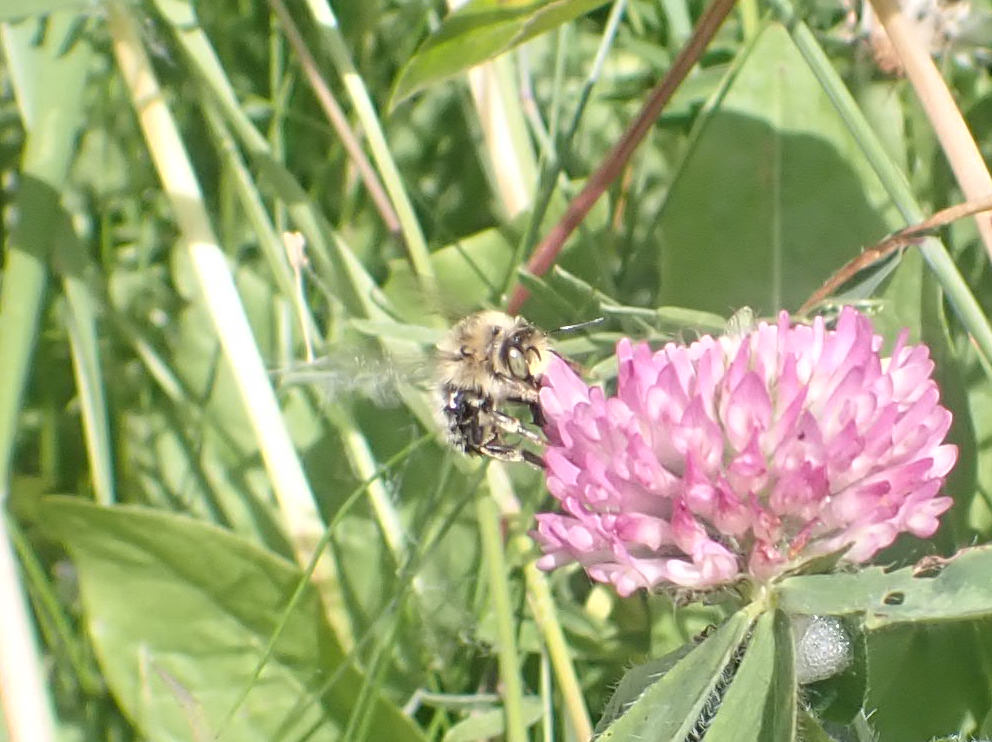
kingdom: Animalia
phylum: Arthropoda
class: Insecta
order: Hymenoptera
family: Apidae
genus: Anthophora
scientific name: Anthophora terminalis
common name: Orange-tipped wood-digger bee
